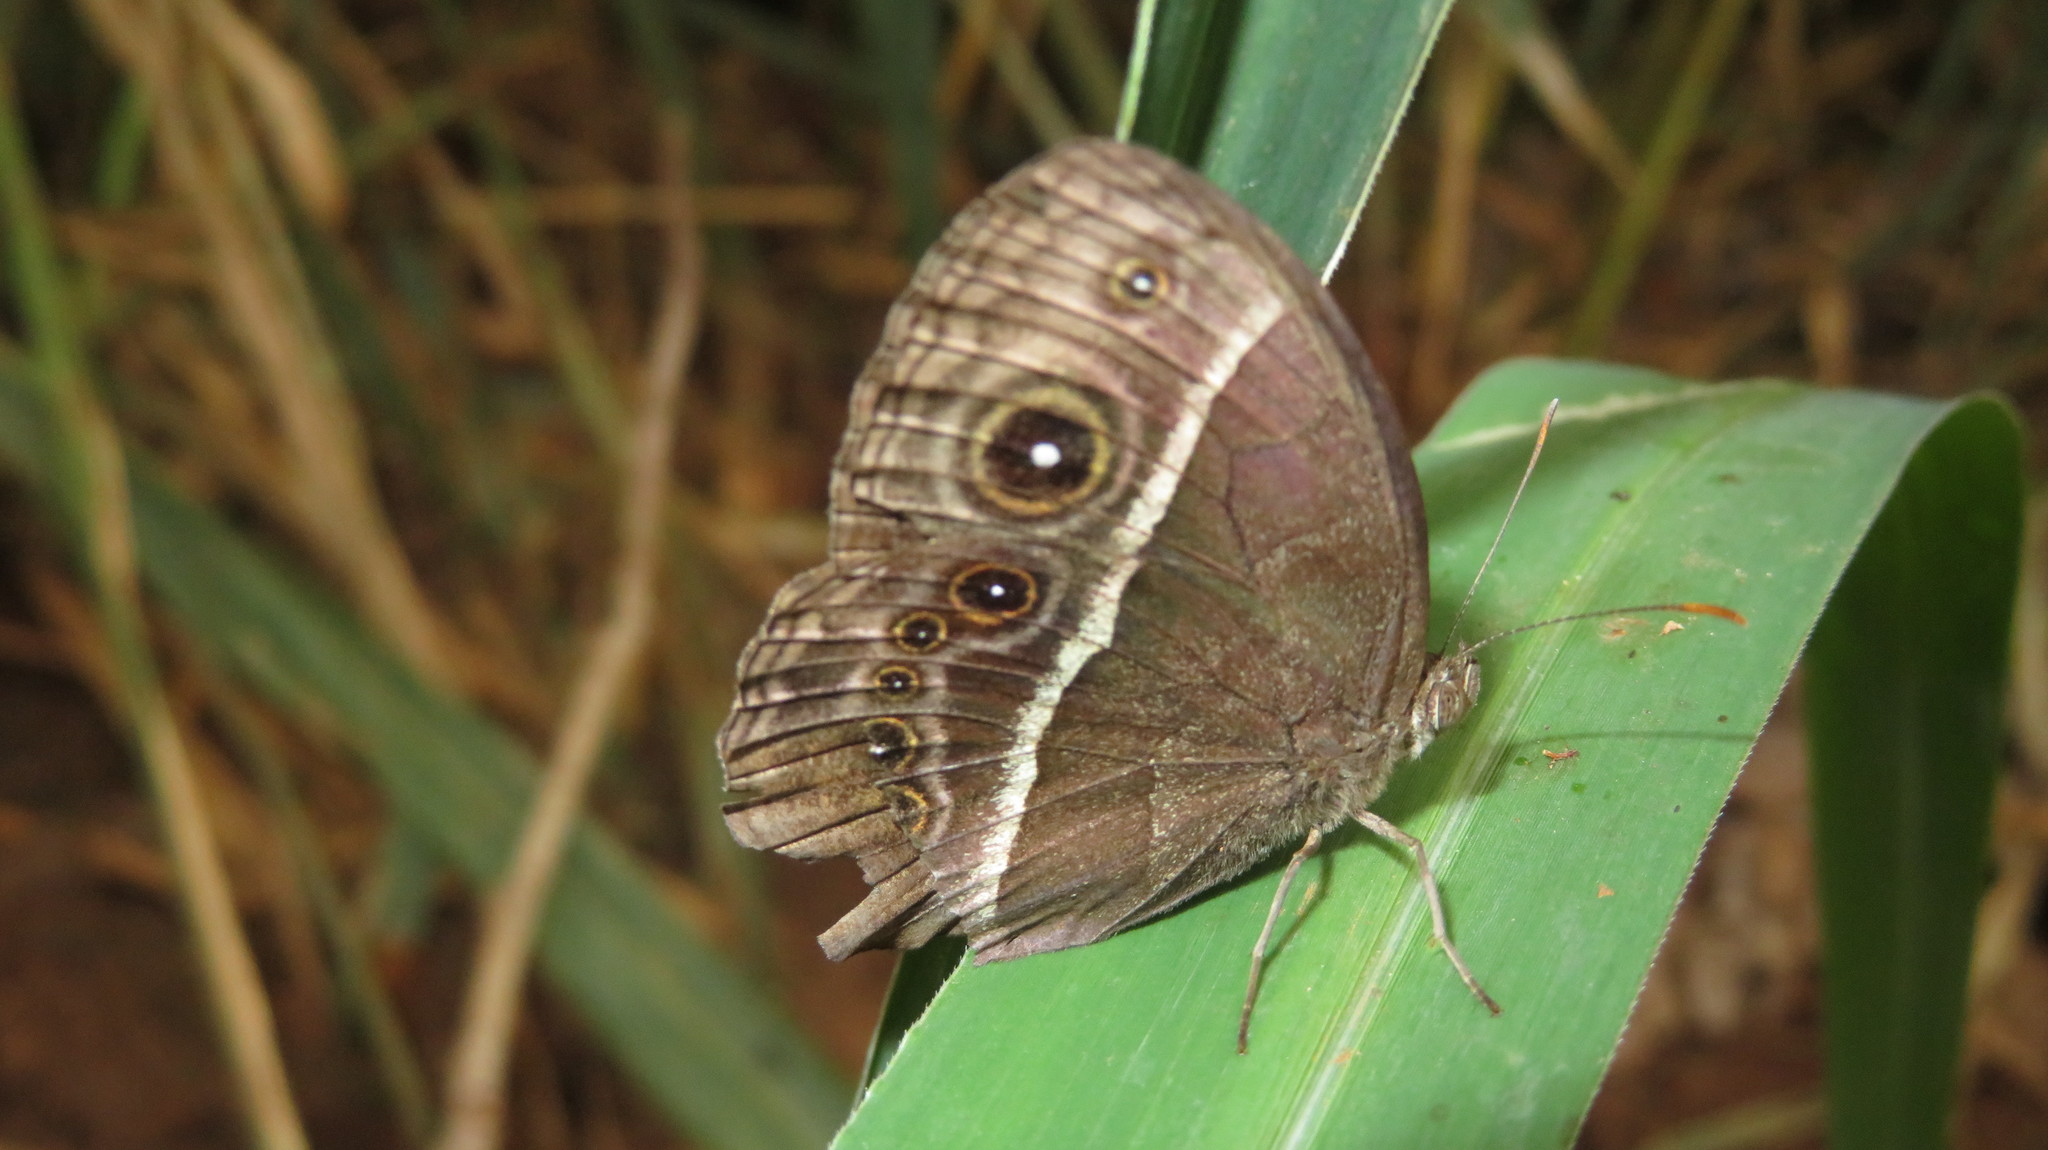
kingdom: Animalia
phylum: Arthropoda
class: Insecta
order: Lepidoptera
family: Nymphalidae
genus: Mycalesis
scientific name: Mycalesis rhacotis
